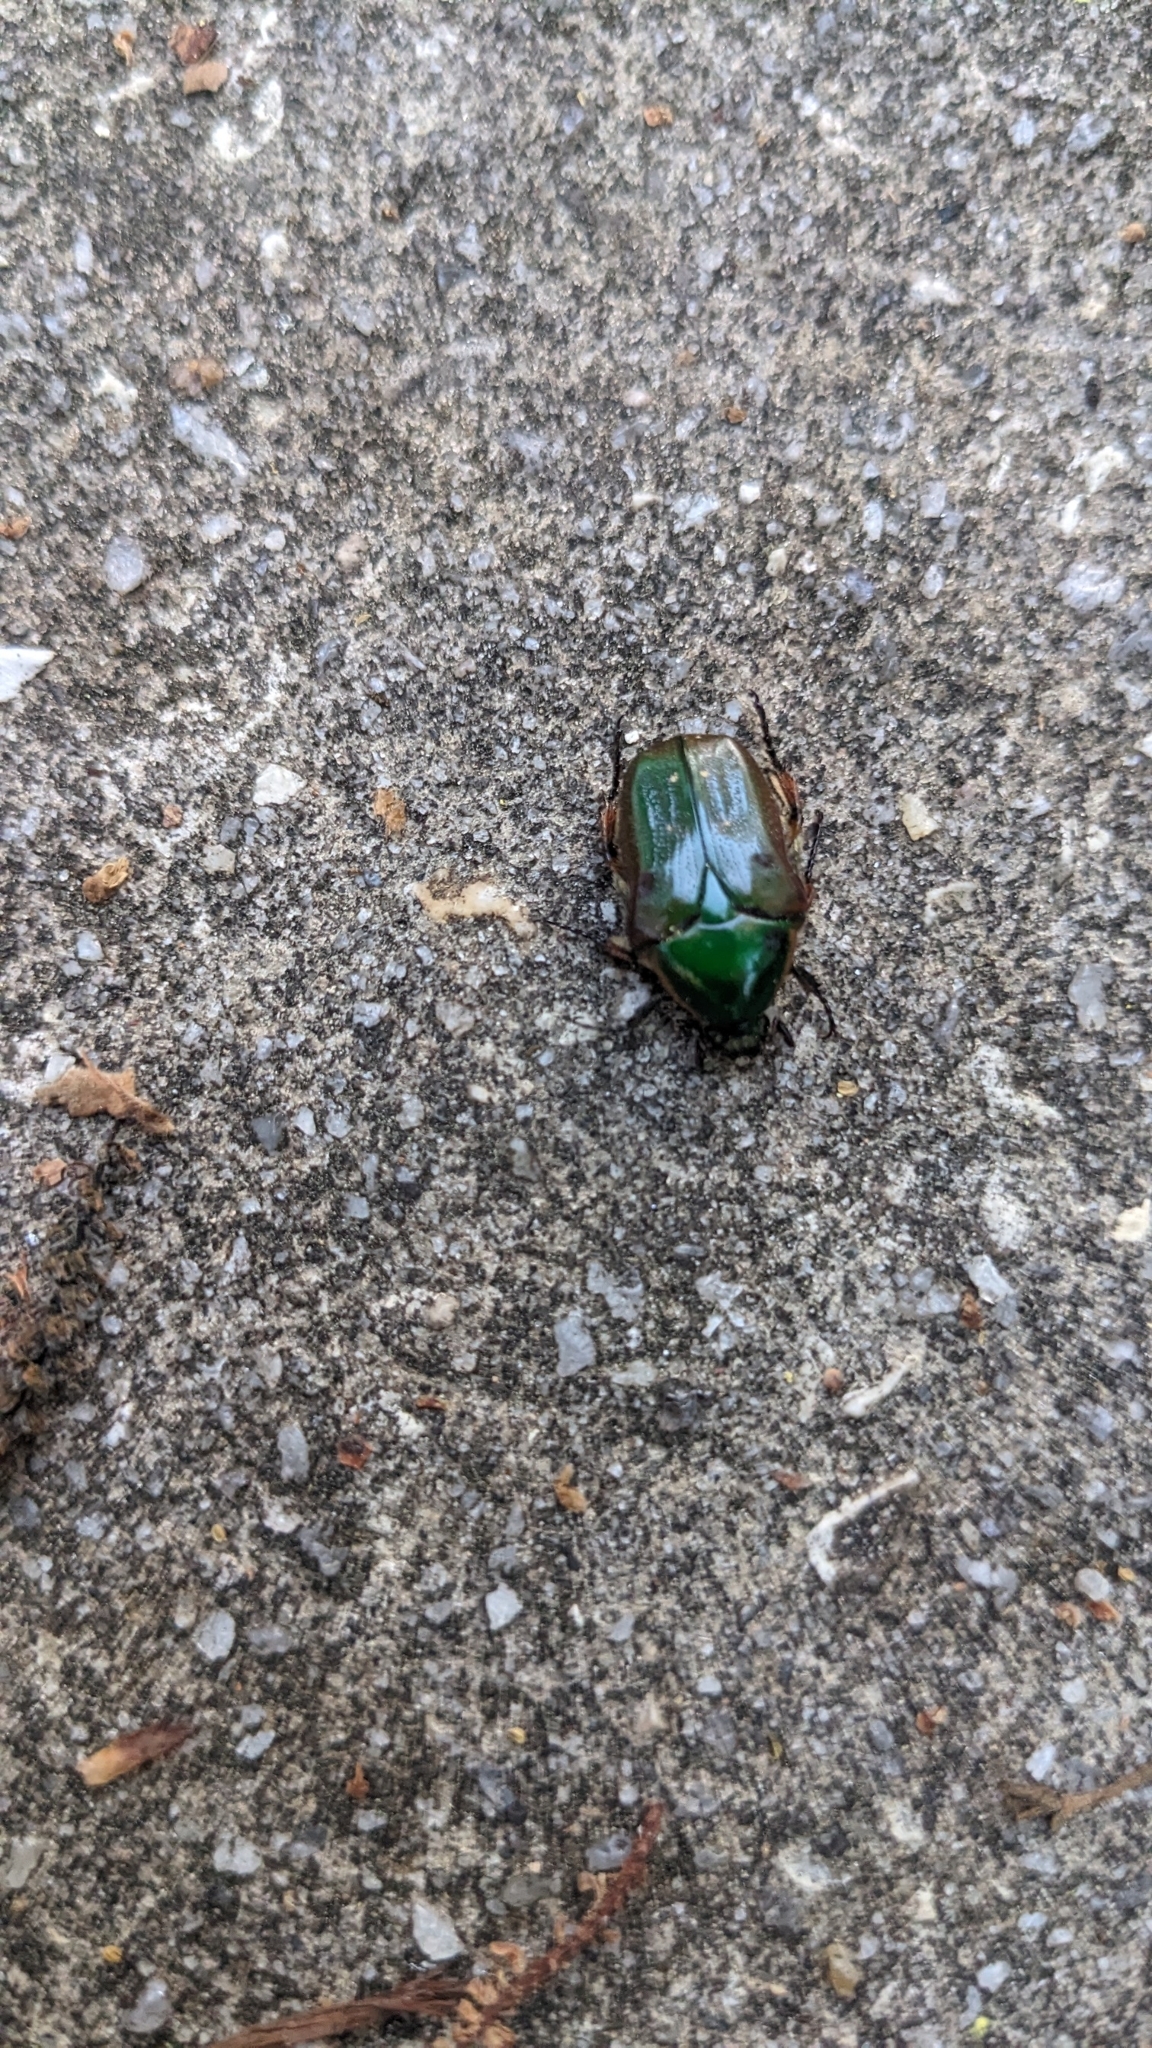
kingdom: Animalia
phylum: Arthropoda
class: Insecta
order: Coleoptera
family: Scarabaeidae
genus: Euphoria
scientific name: Euphoria fulgida
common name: Emerald euphoria
